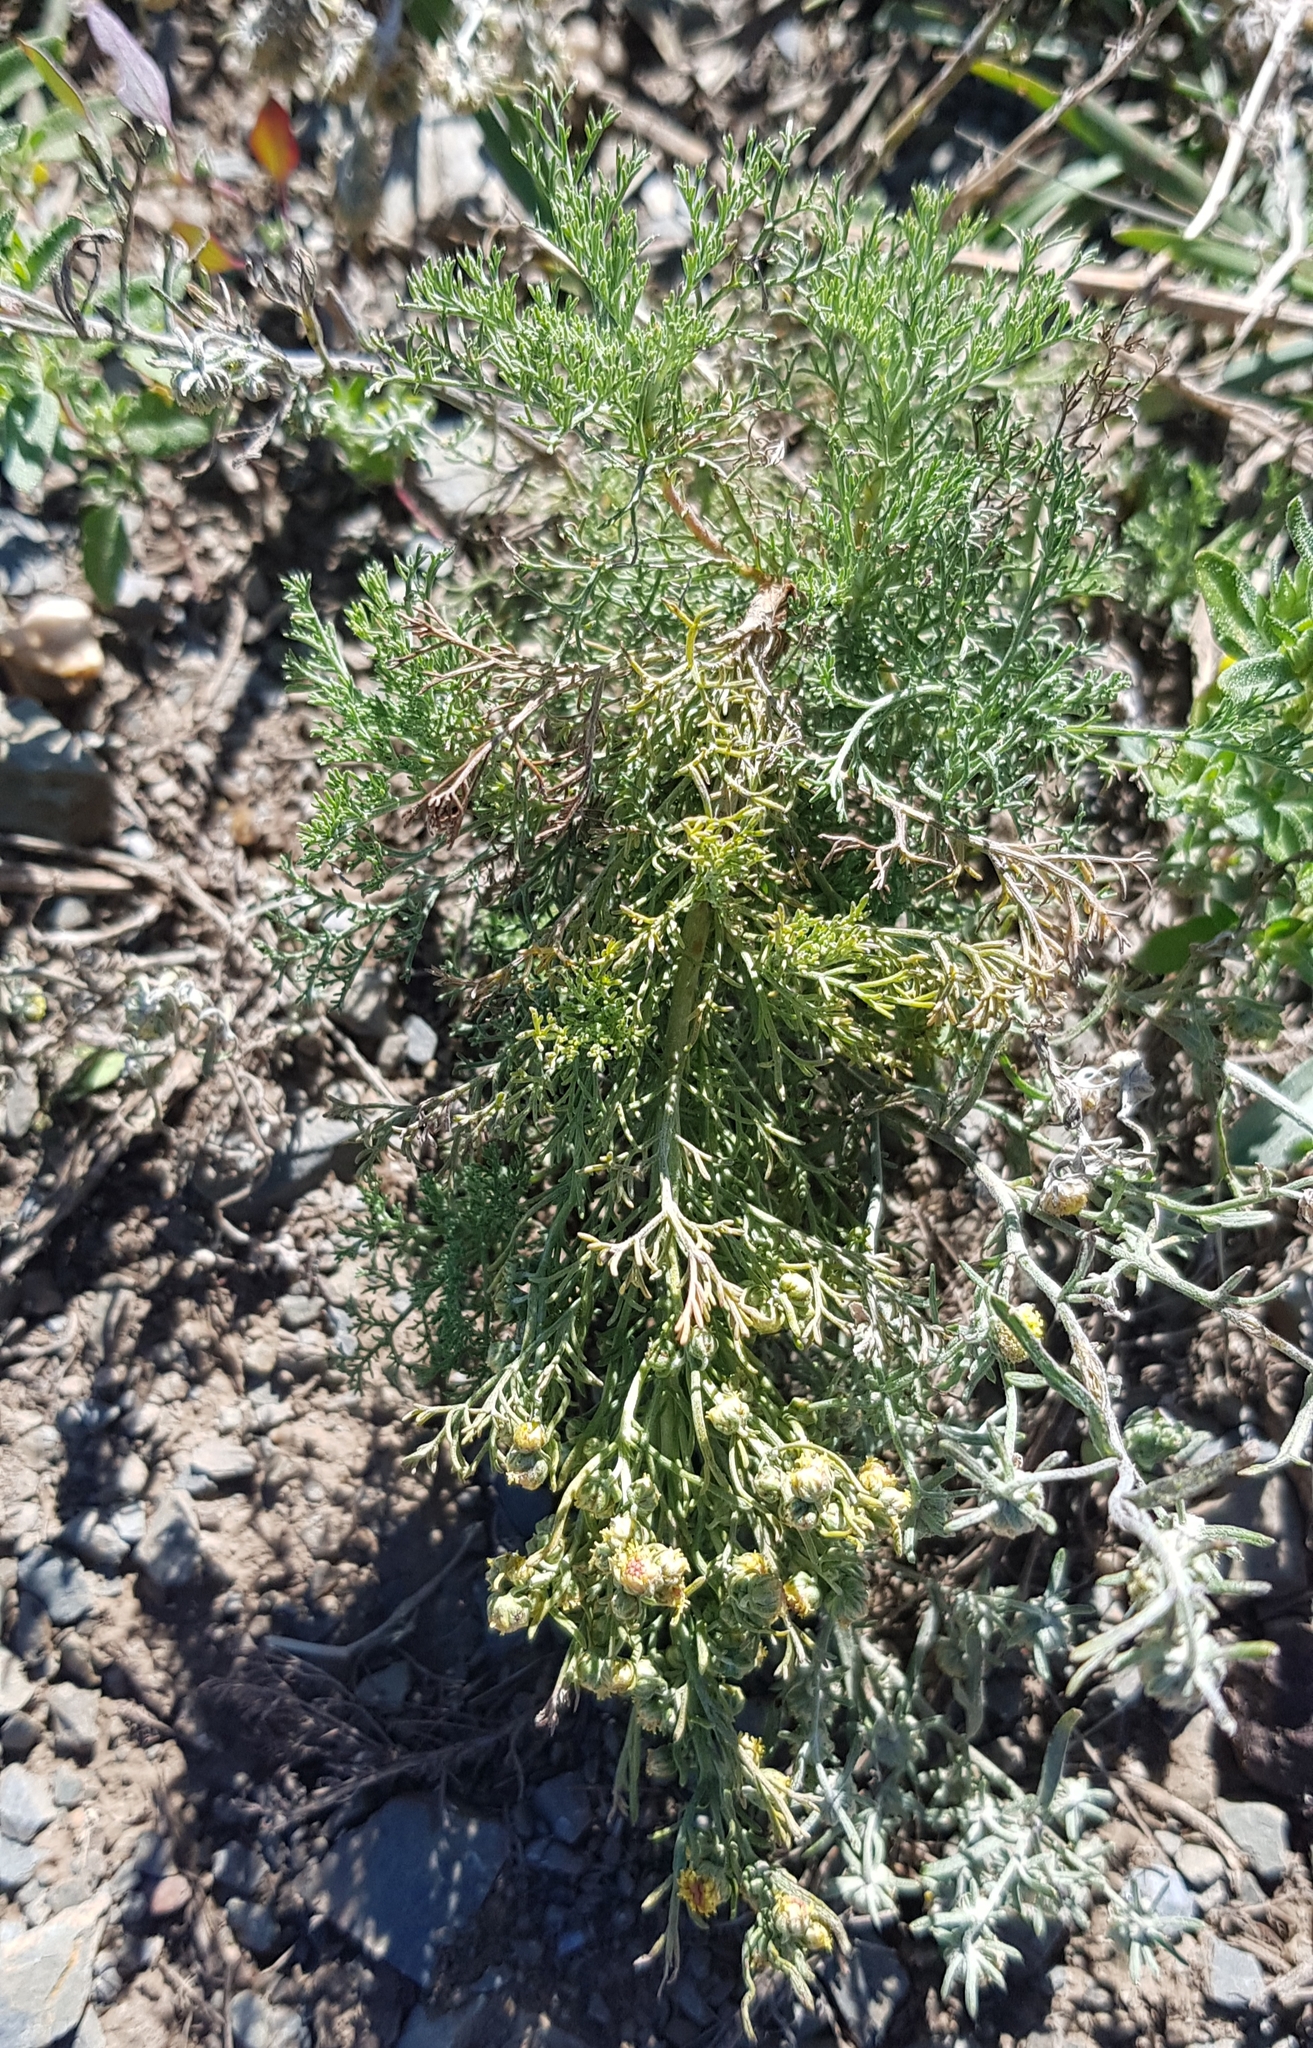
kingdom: Plantae
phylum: Tracheophyta
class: Magnoliopsida
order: Asterales
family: Asteraceae
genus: Artemisia
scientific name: Artemisia adamsii
